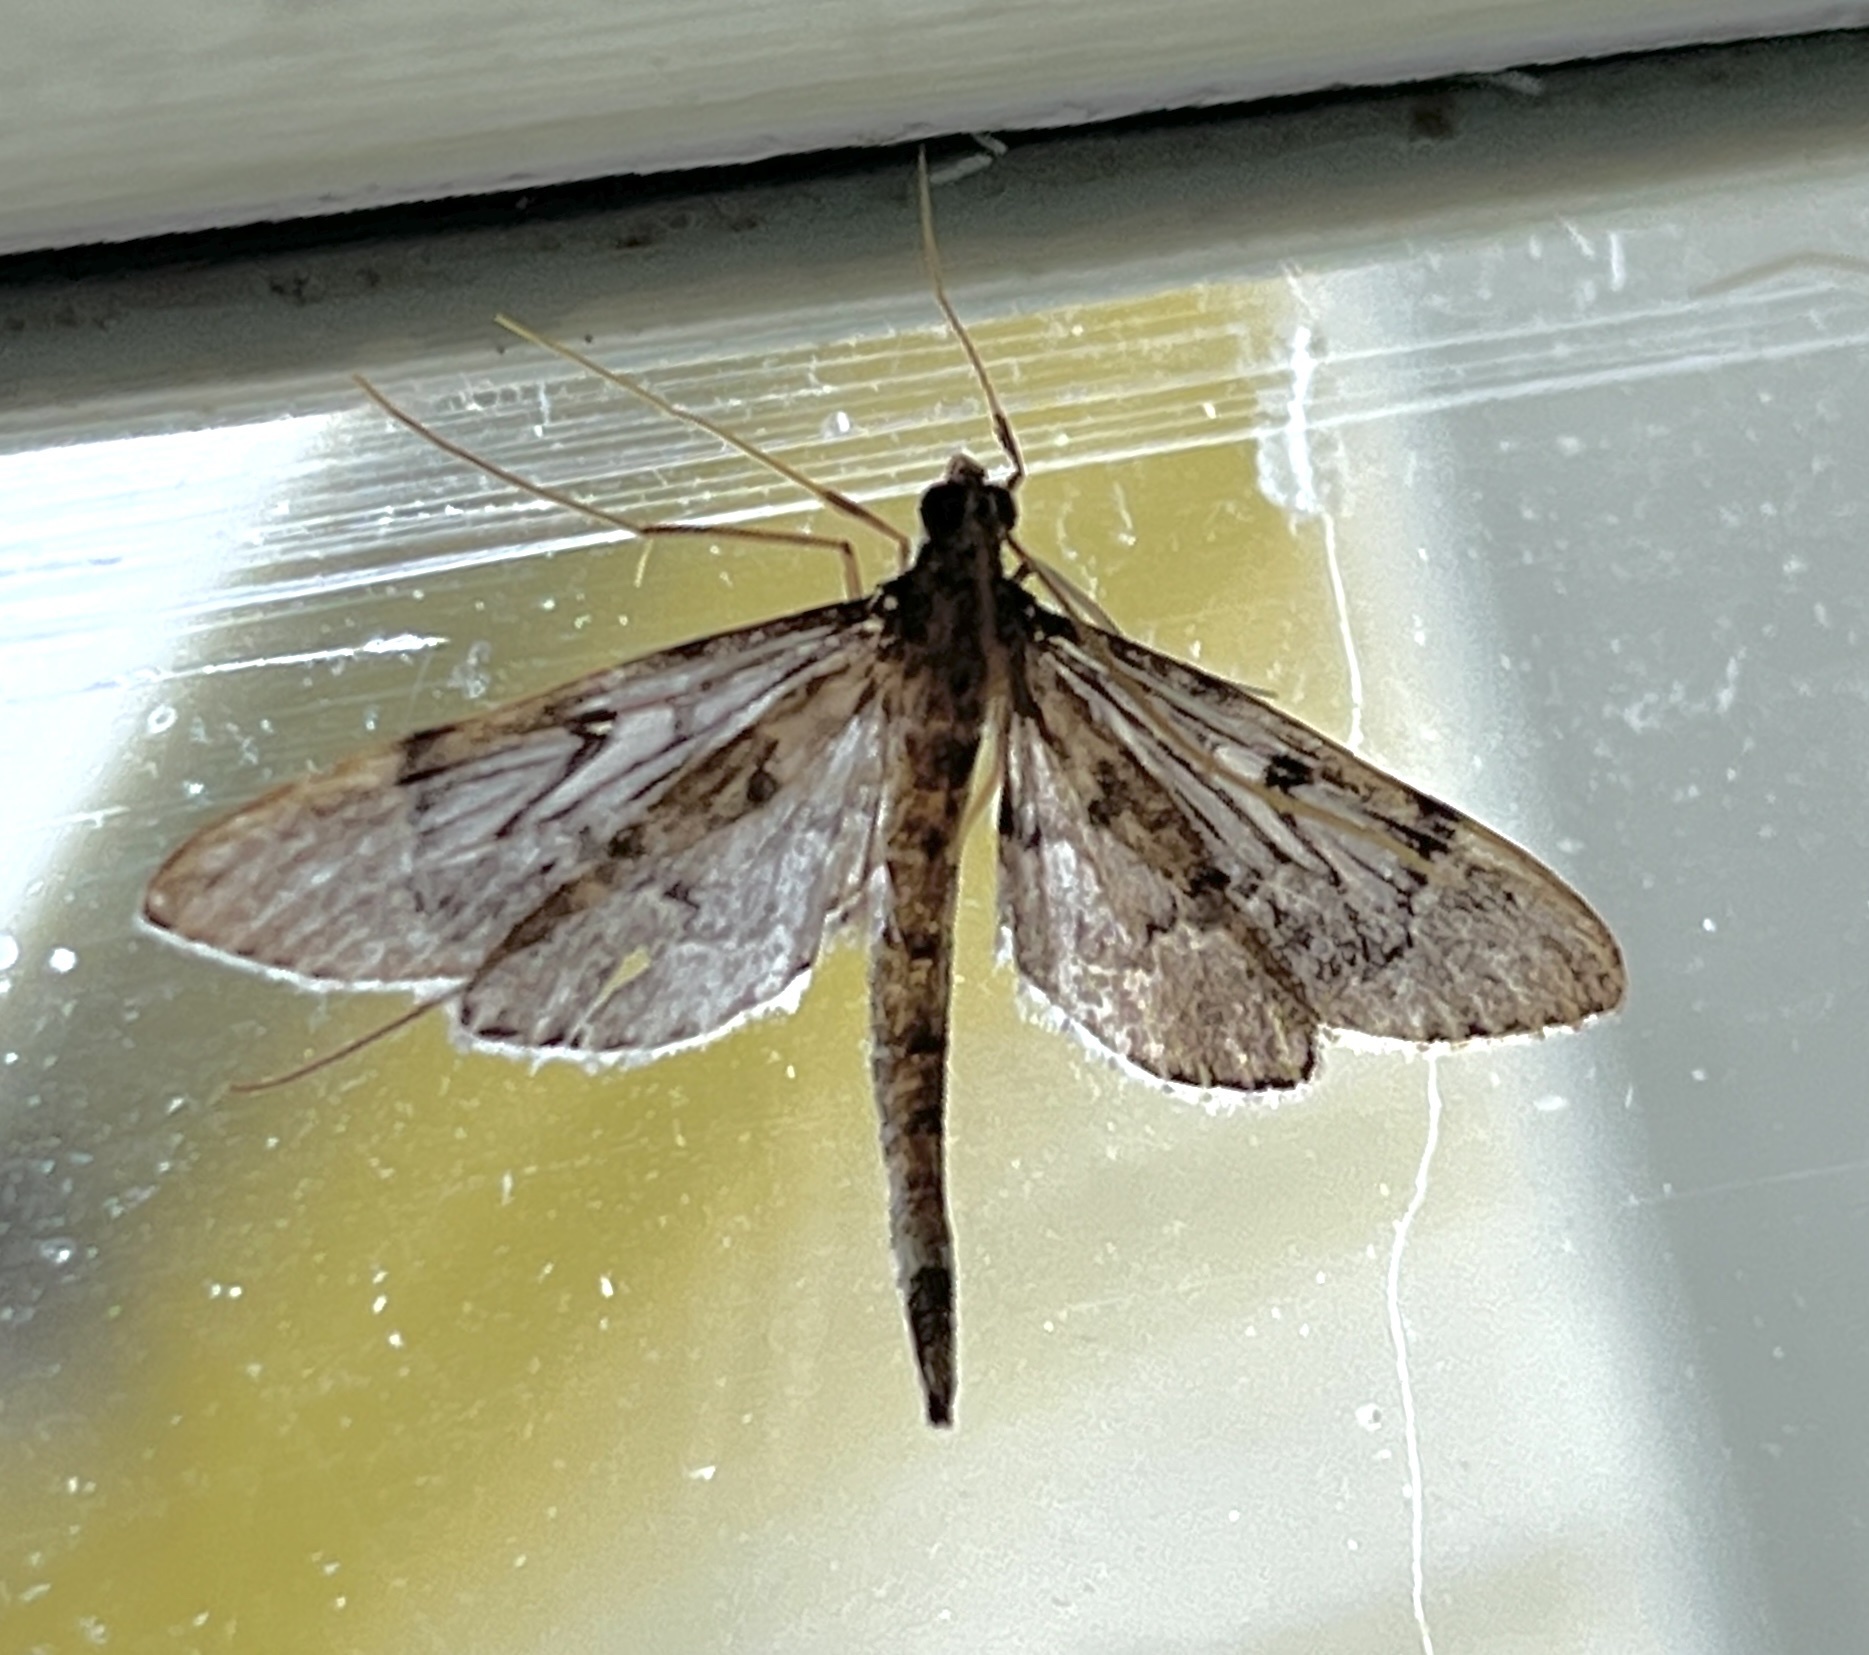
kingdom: Animalia
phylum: Arthropoda
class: Insecta
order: Lepidoptera
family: Crambidae
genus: Duponchelia
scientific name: Duponchelia lanceolalis
